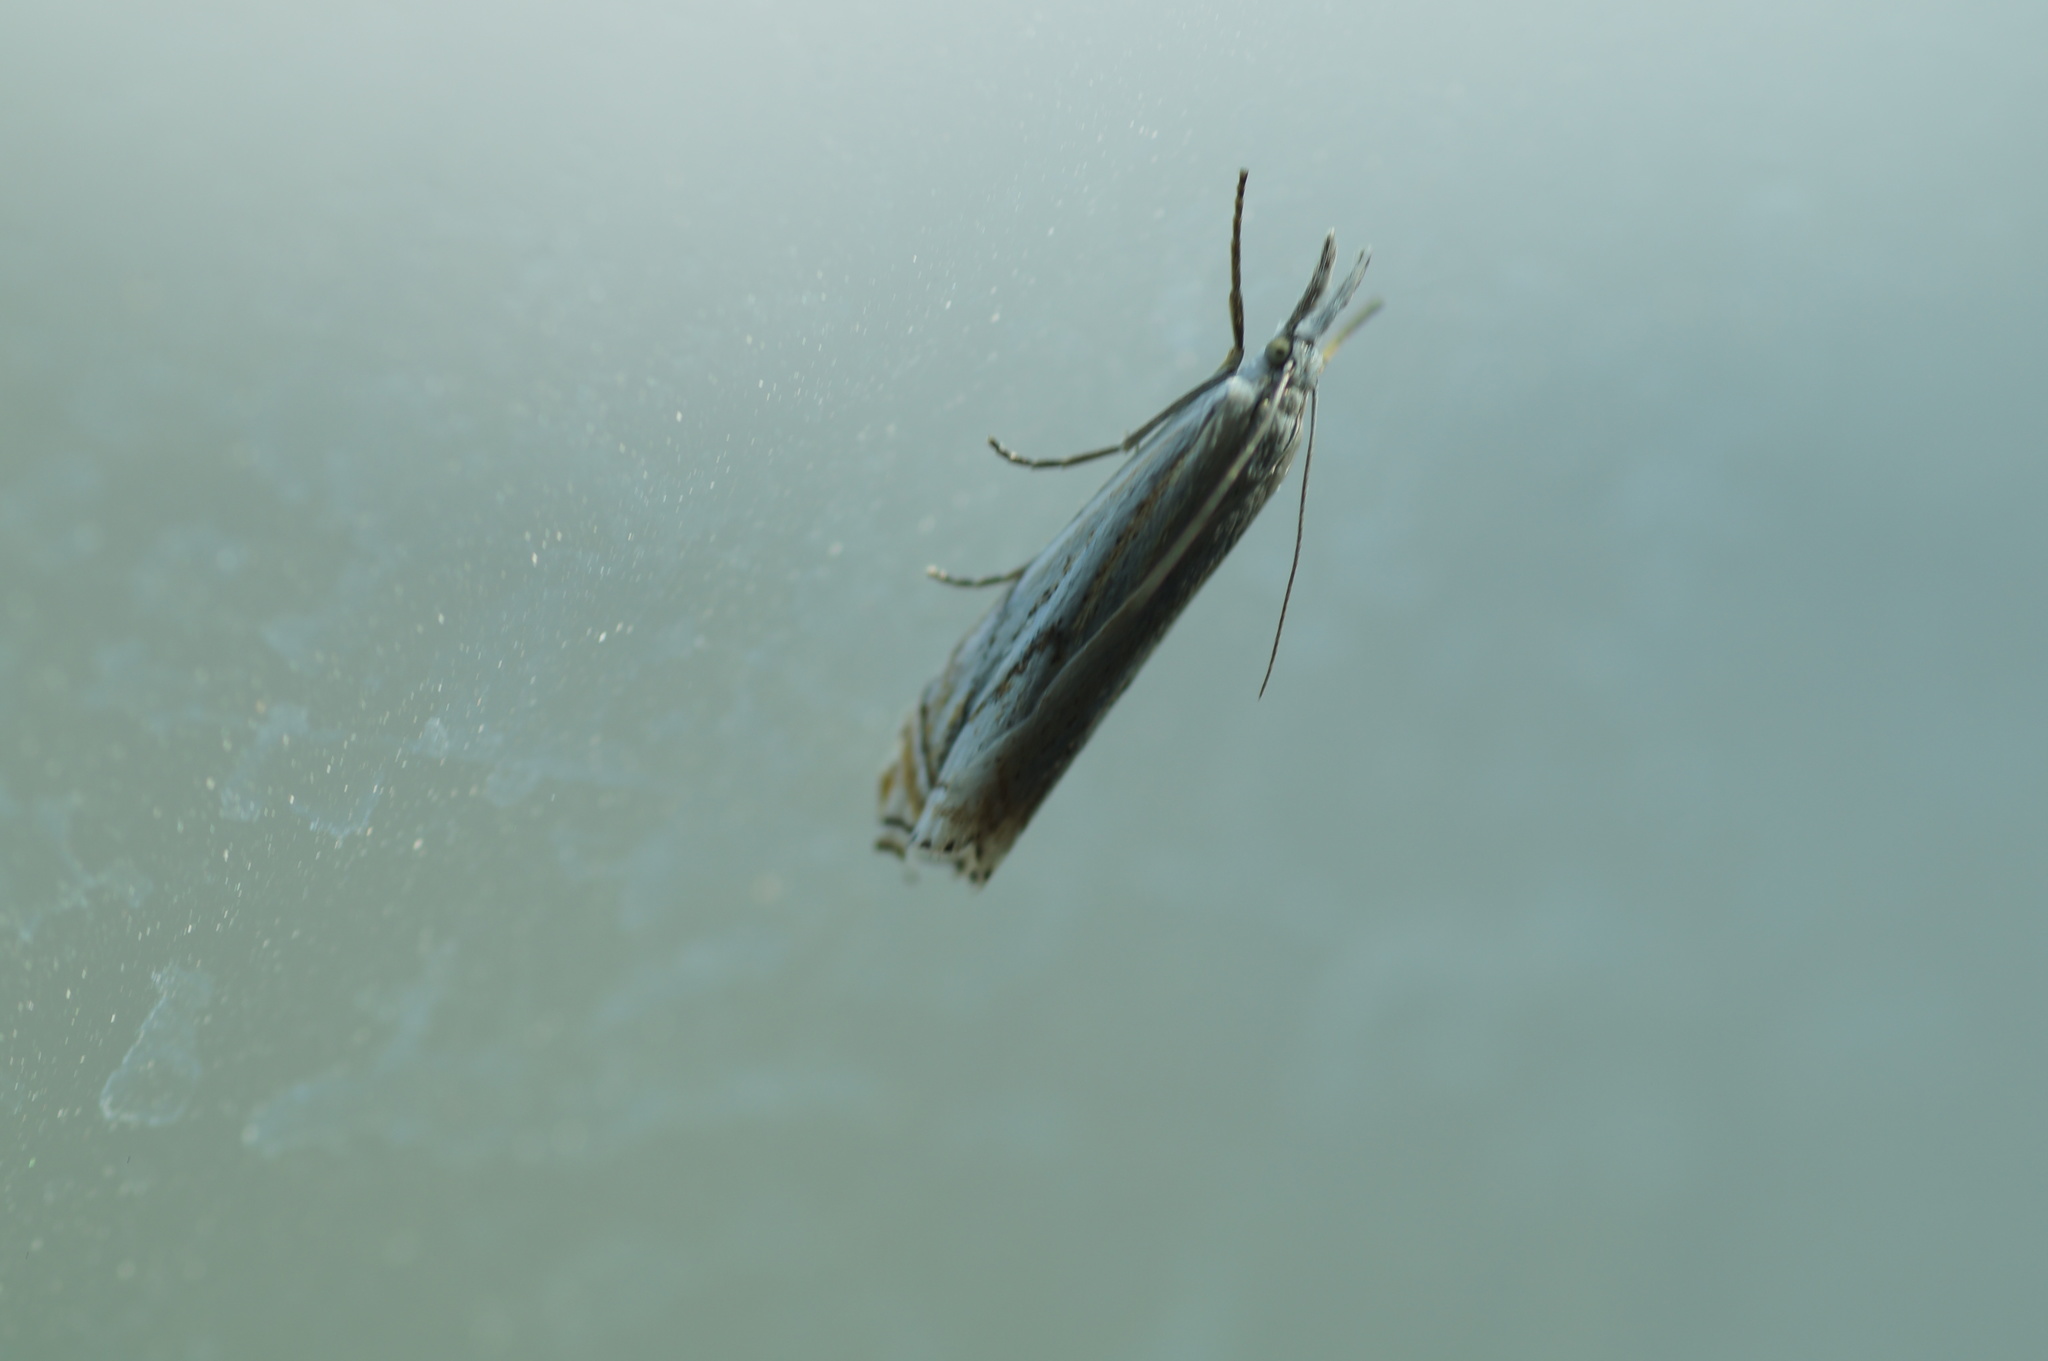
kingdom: Animalia
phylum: Arthropoda
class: Insecta
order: Lepidoptera
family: Crambidae
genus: Crambus
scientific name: Crambus nemorella
